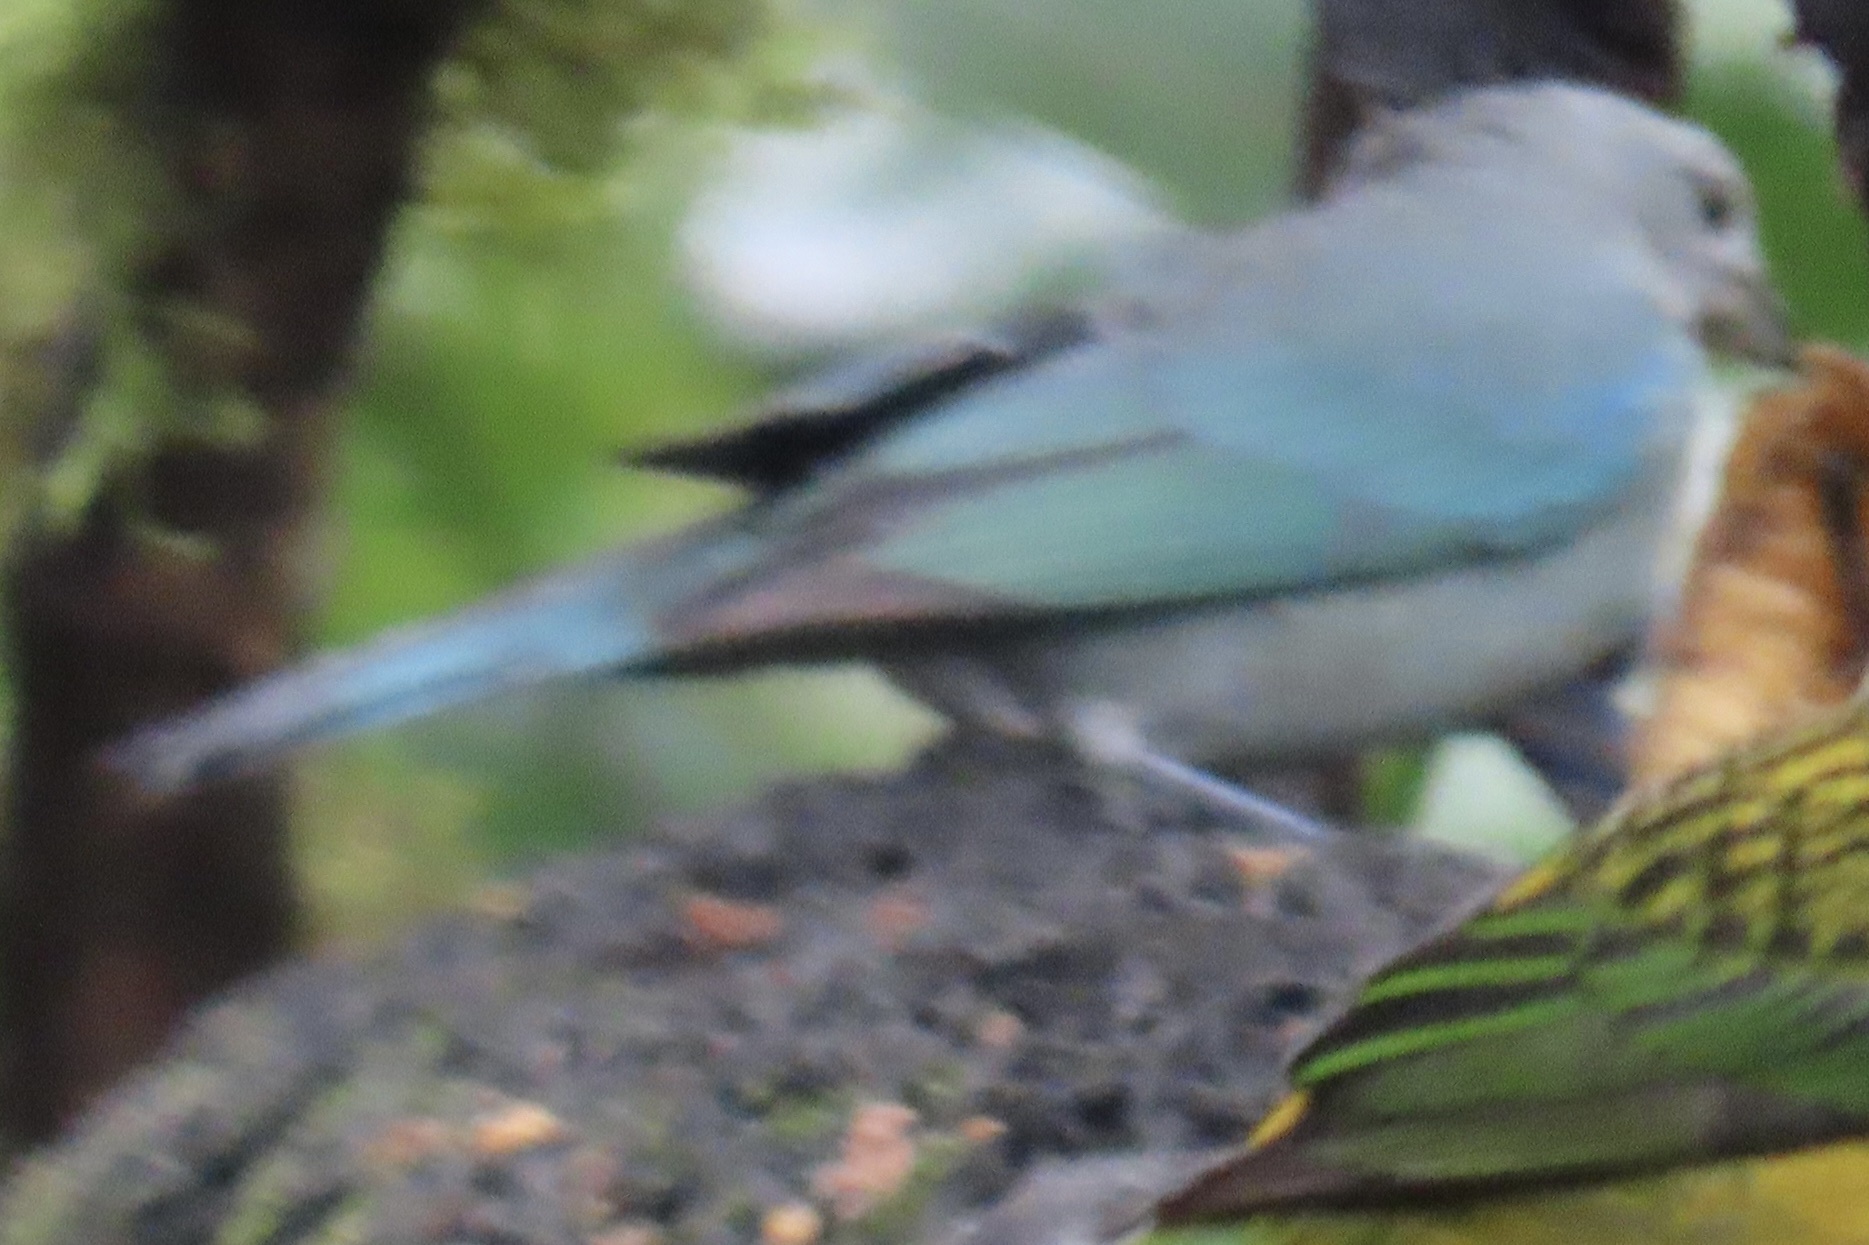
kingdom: Animalia
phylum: Chordata
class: Aves
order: Passeriformes
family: Thraupidae
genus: Thraupis
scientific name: Thraupis episcopus
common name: Blue-grey tanager
